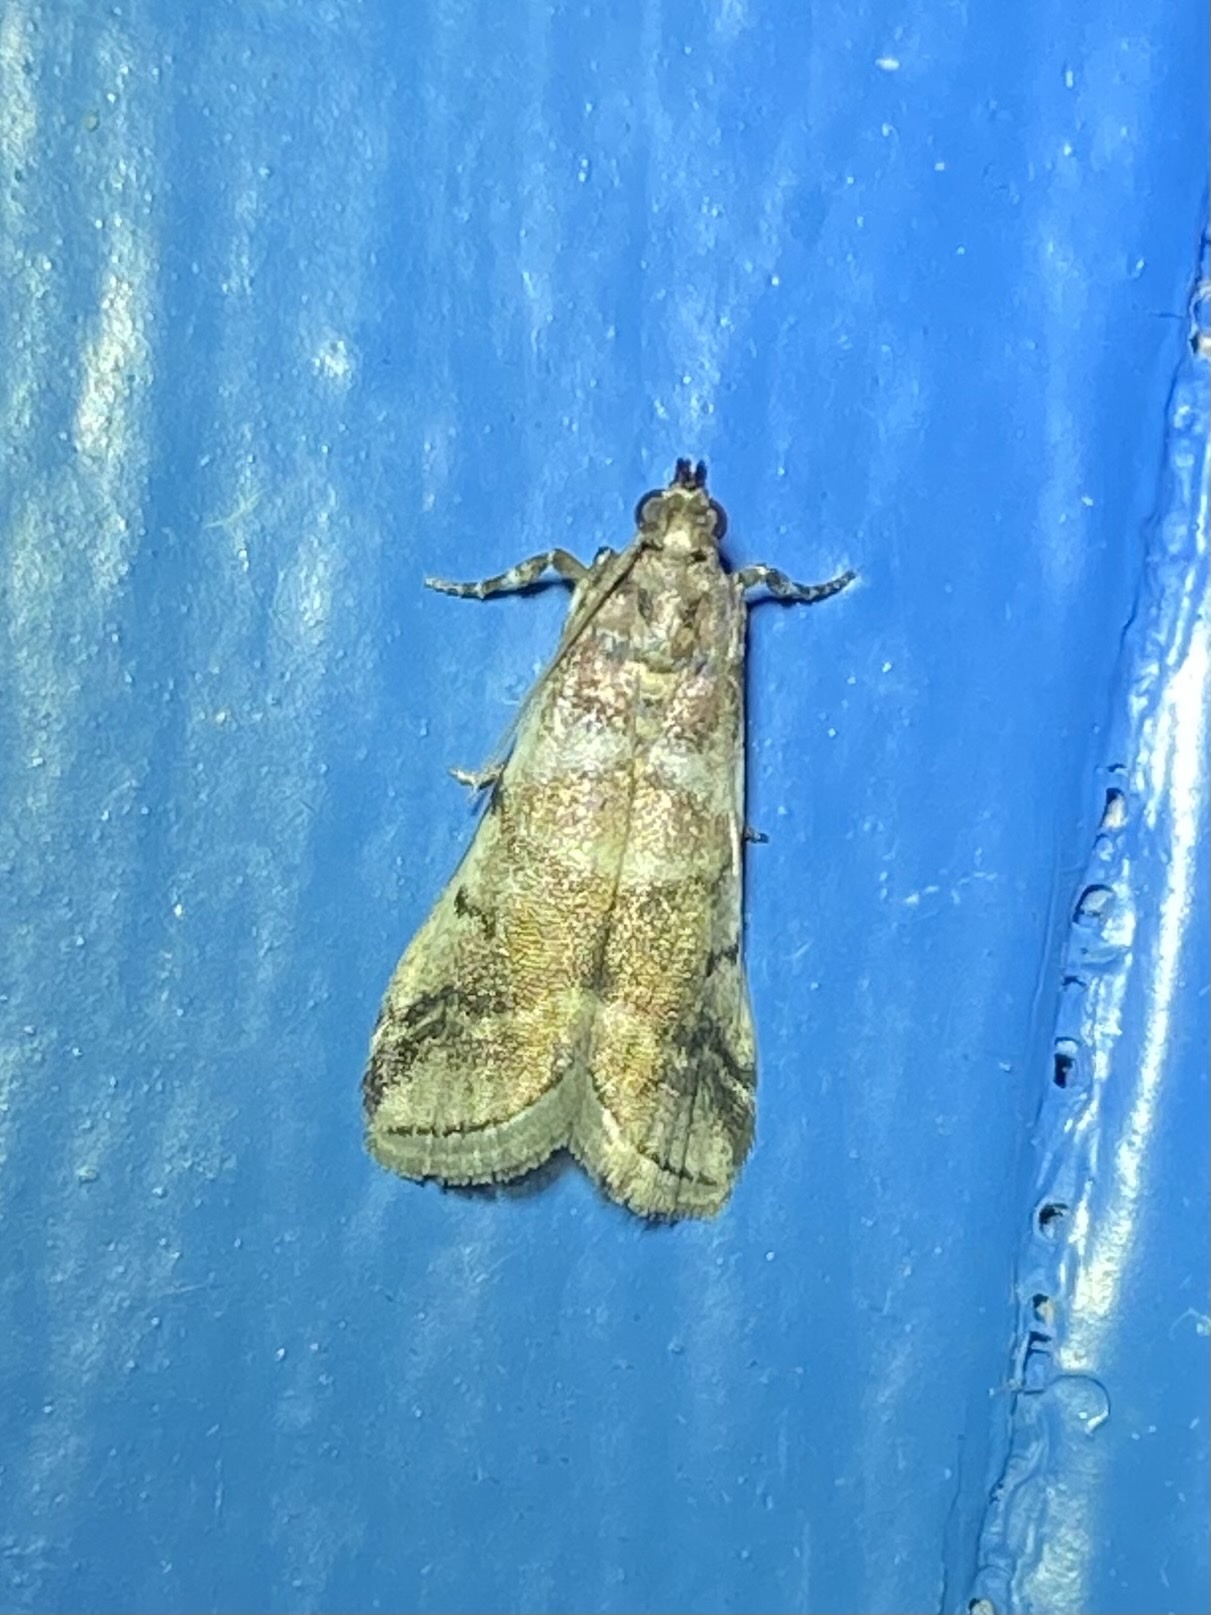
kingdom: Animalia
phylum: Arthropoda
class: Insecta
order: Lepidoptera
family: Pyralidae
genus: Acrobasis
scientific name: Acrobasis indigenella
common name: Leaf crumpler moth
